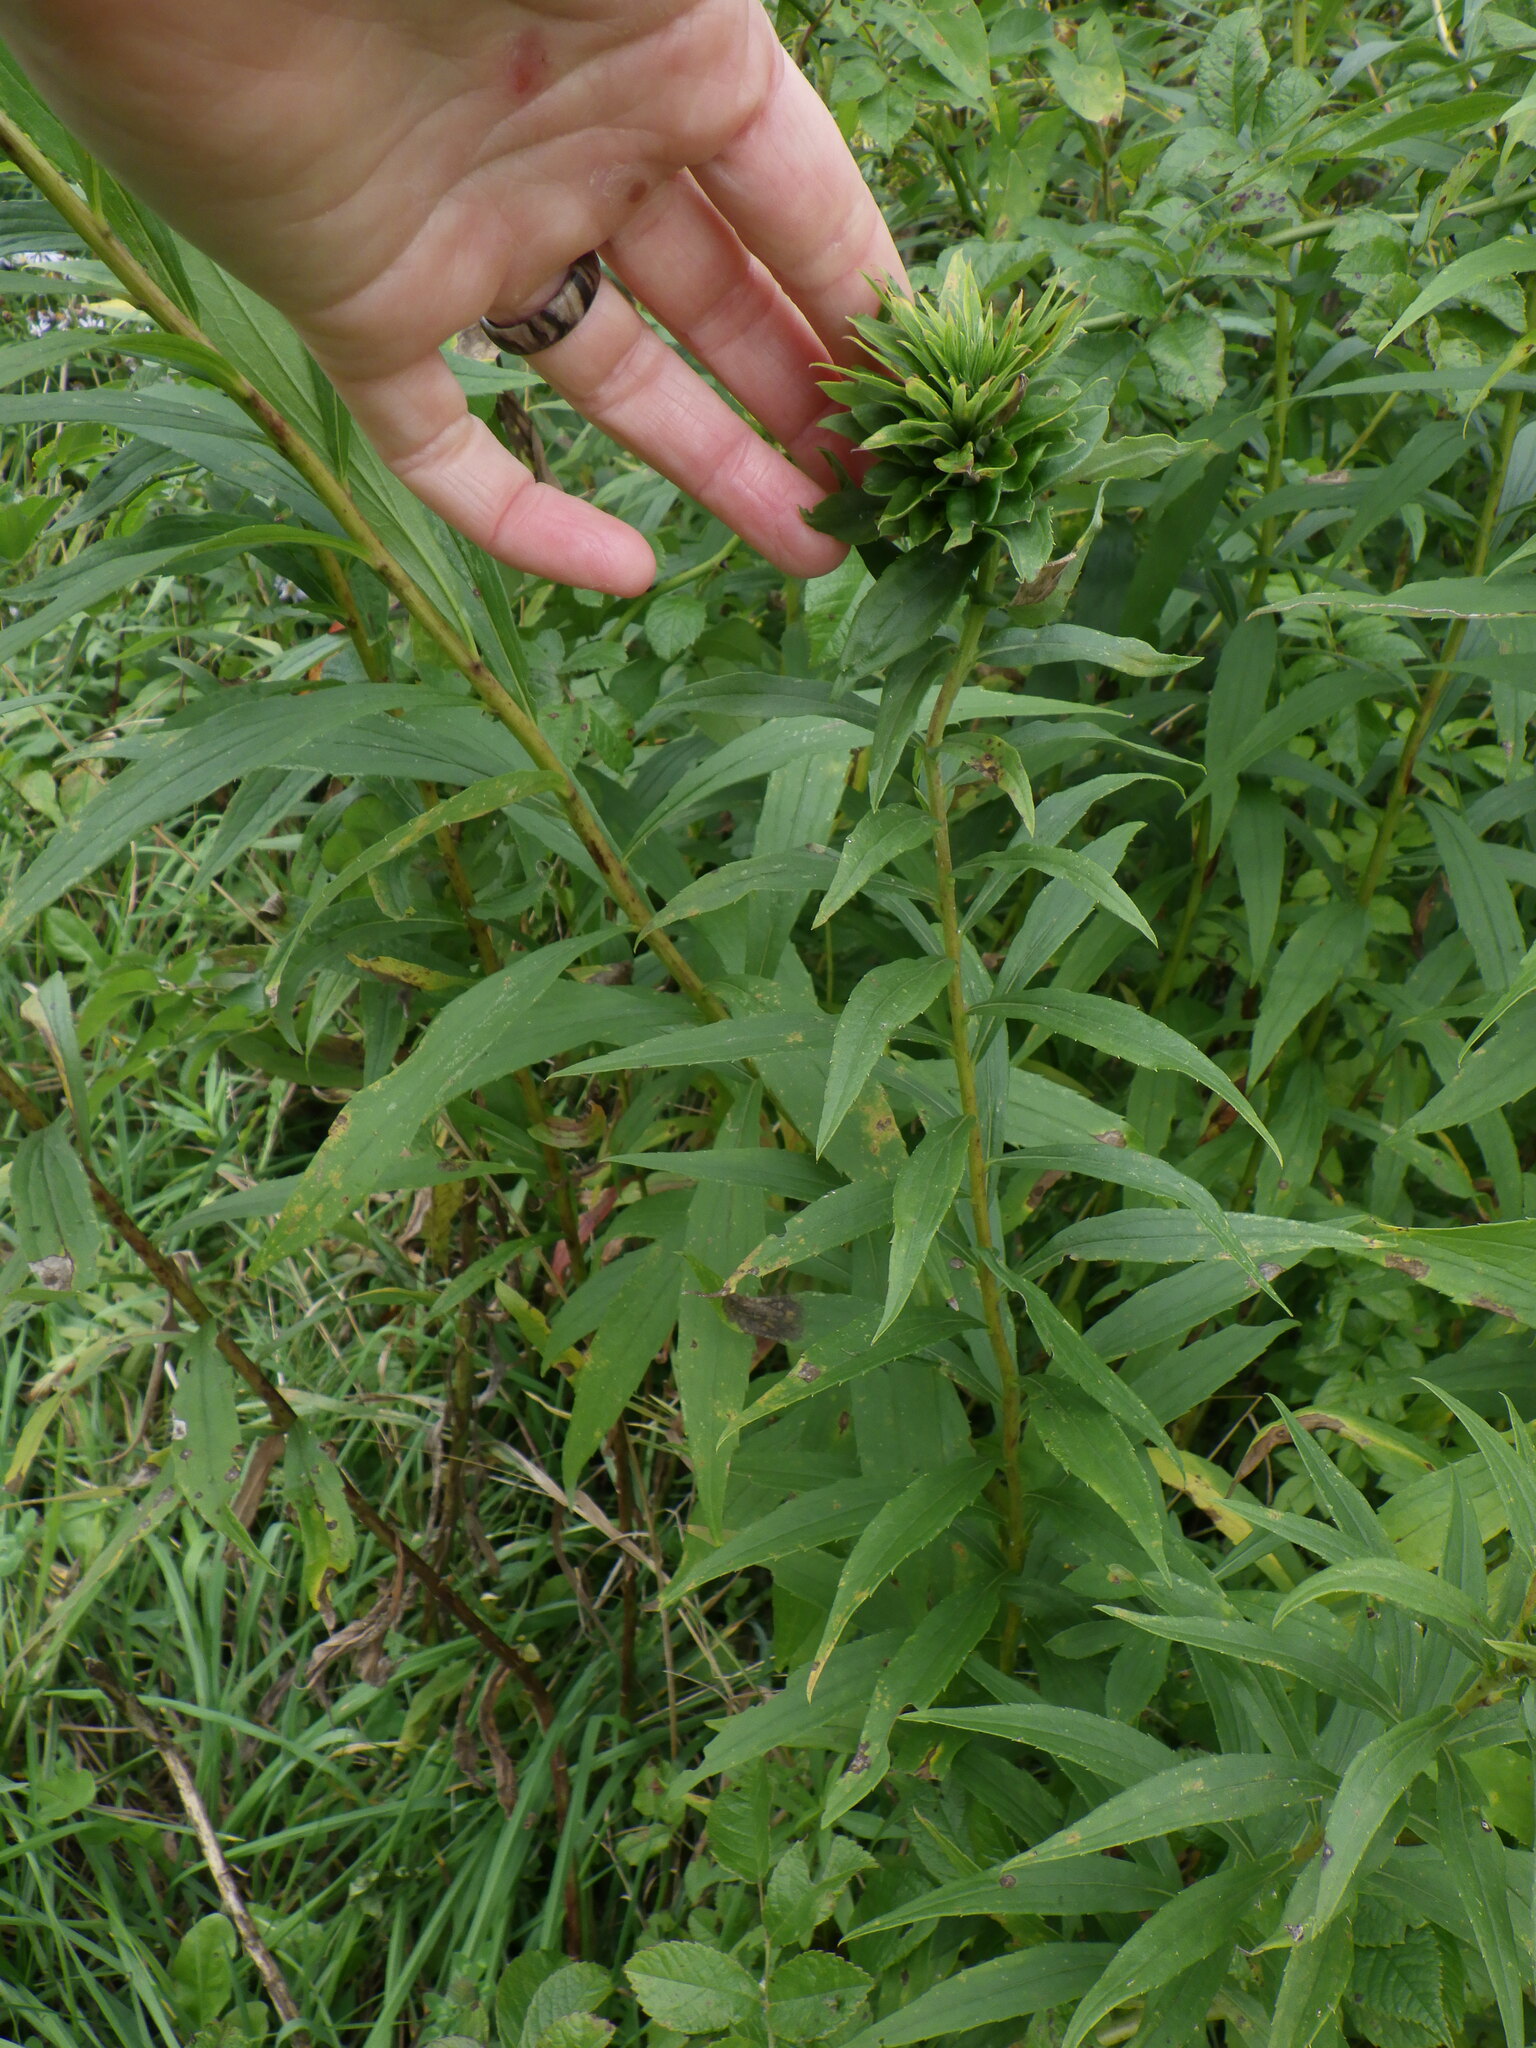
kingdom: Animalia
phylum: Arthropoda
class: Insecta
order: Diptera
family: Cecidomyiidae
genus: Rhopalomyia
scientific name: Rhopalomyia solidaginis
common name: Goldenrod bunch gall midge
